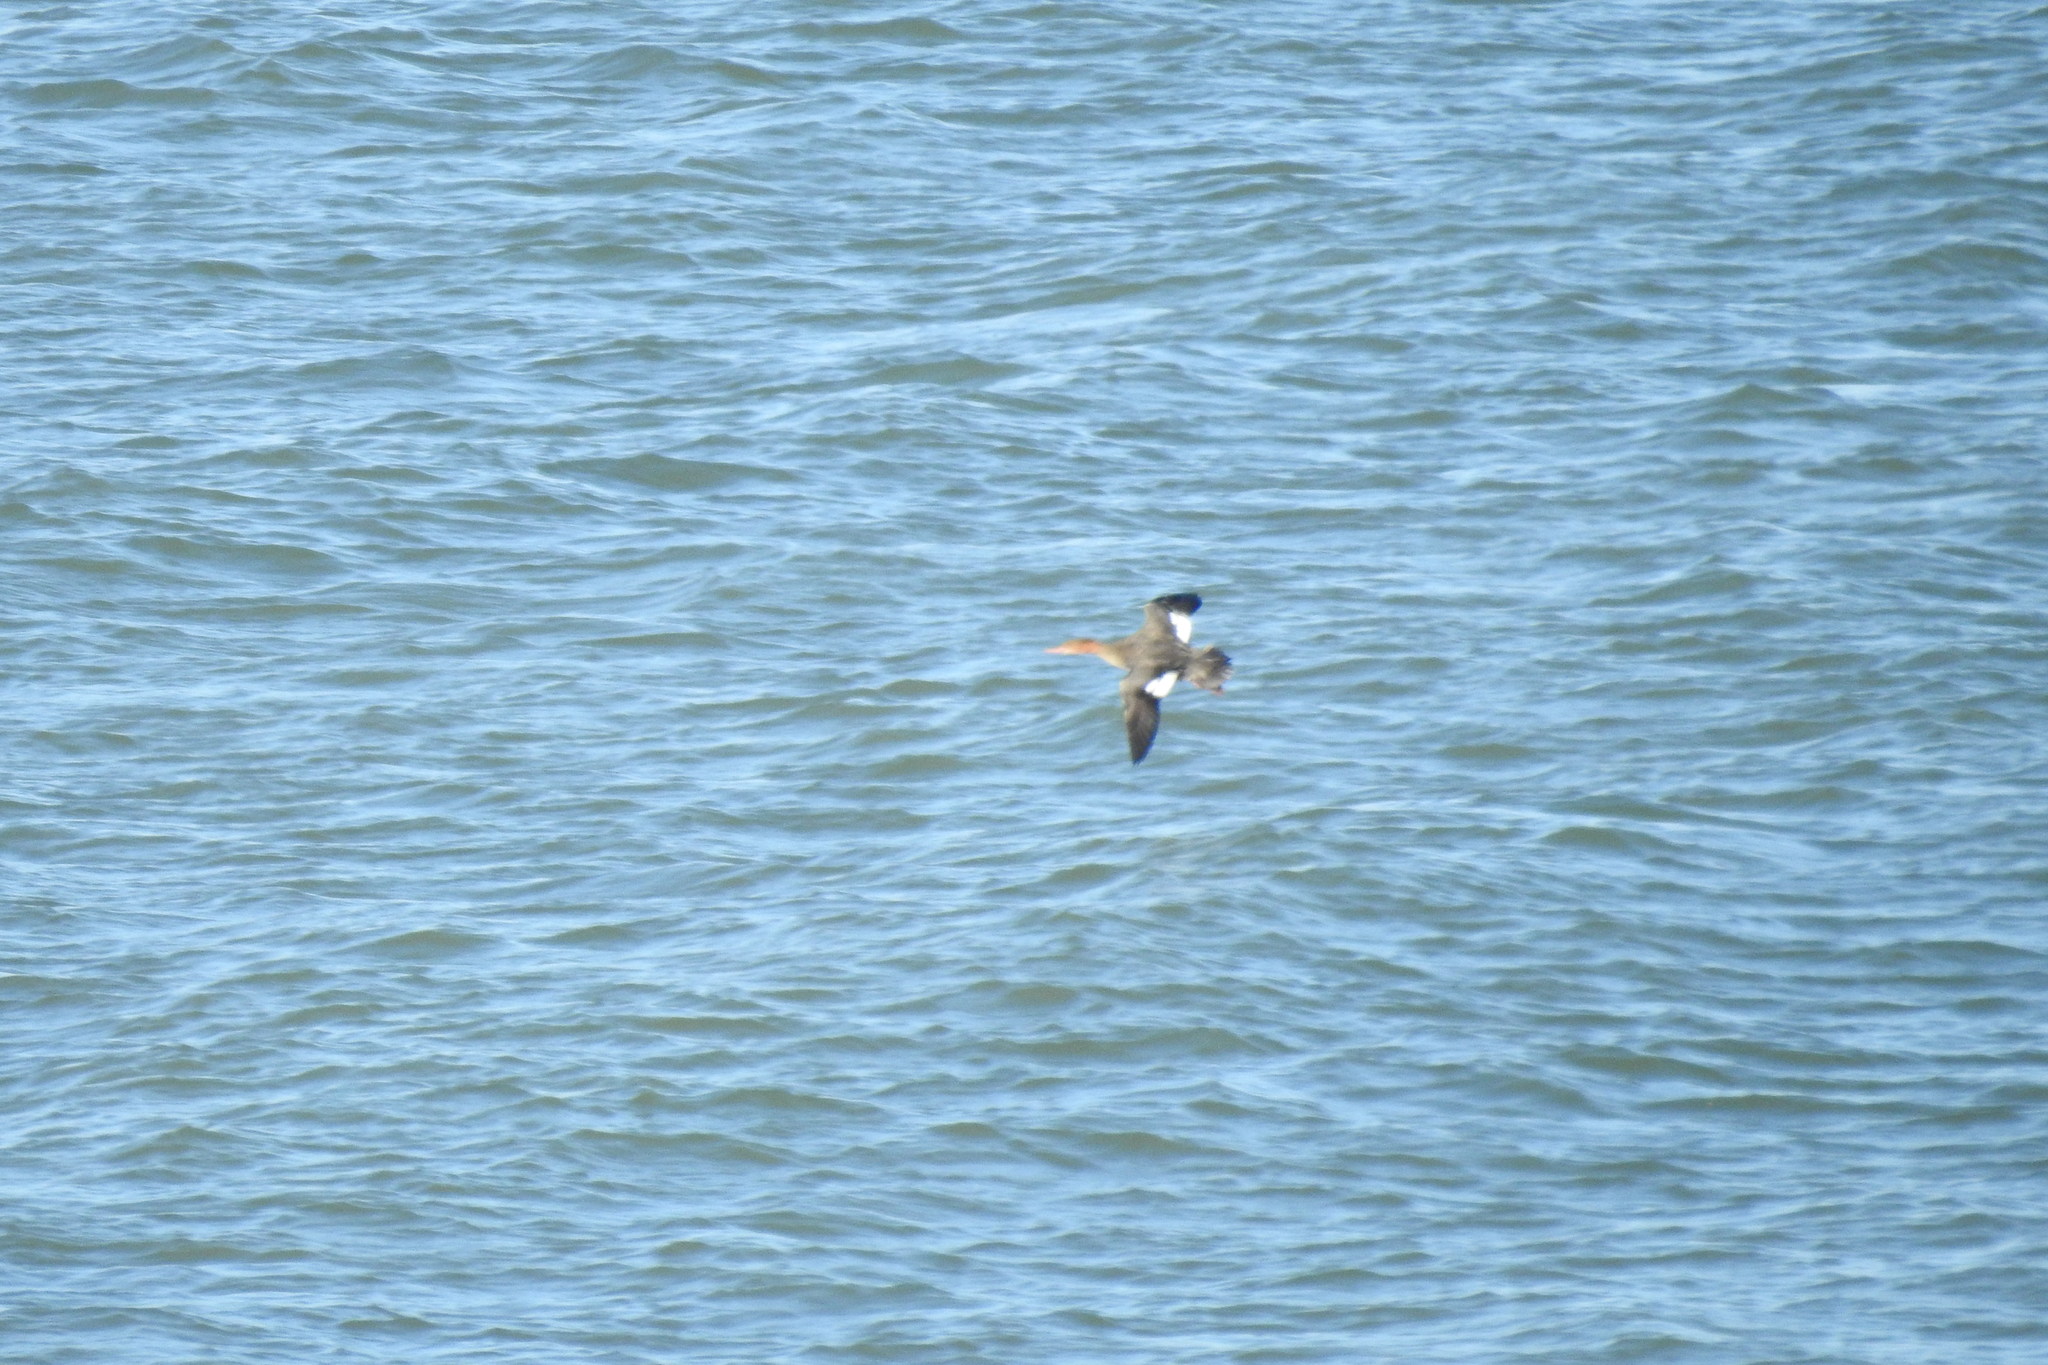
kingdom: Animalia
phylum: Chordata
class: Aves
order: Anseriformes
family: Anatidae
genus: Mergus
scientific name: Mergus serrator
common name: Red-breasted merganser
